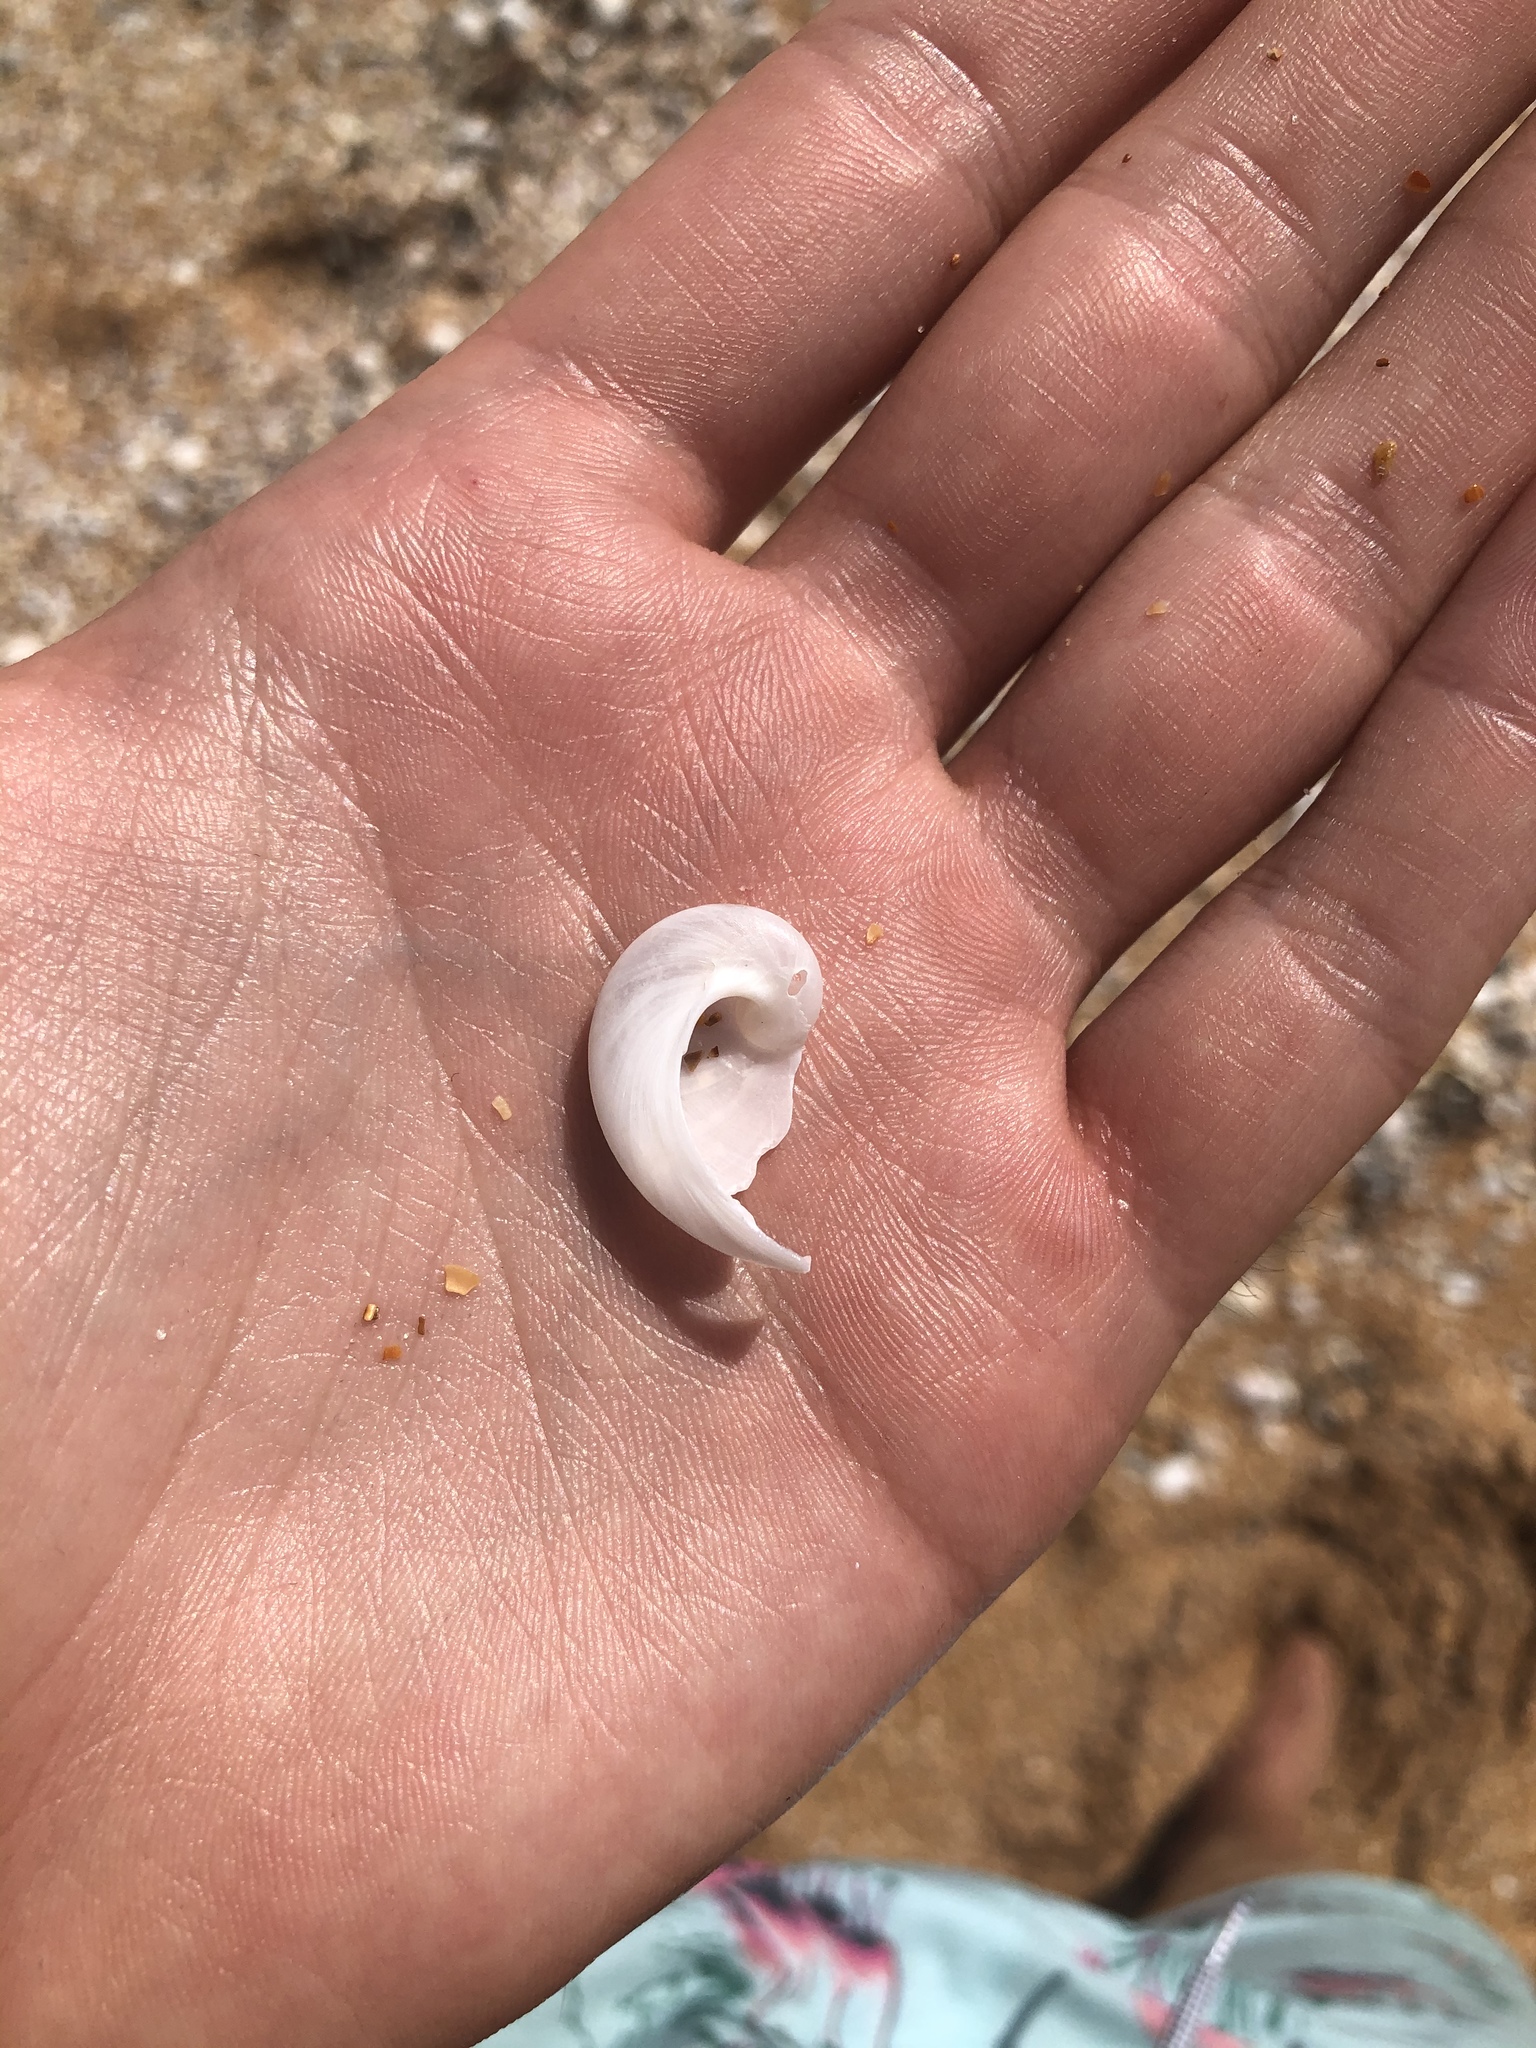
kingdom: Animalia
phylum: Mollusca
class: Gastropoda
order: Littorinimorpha
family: Naticidae
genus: Sinum
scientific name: Sinum perspectivum
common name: White baby ear
